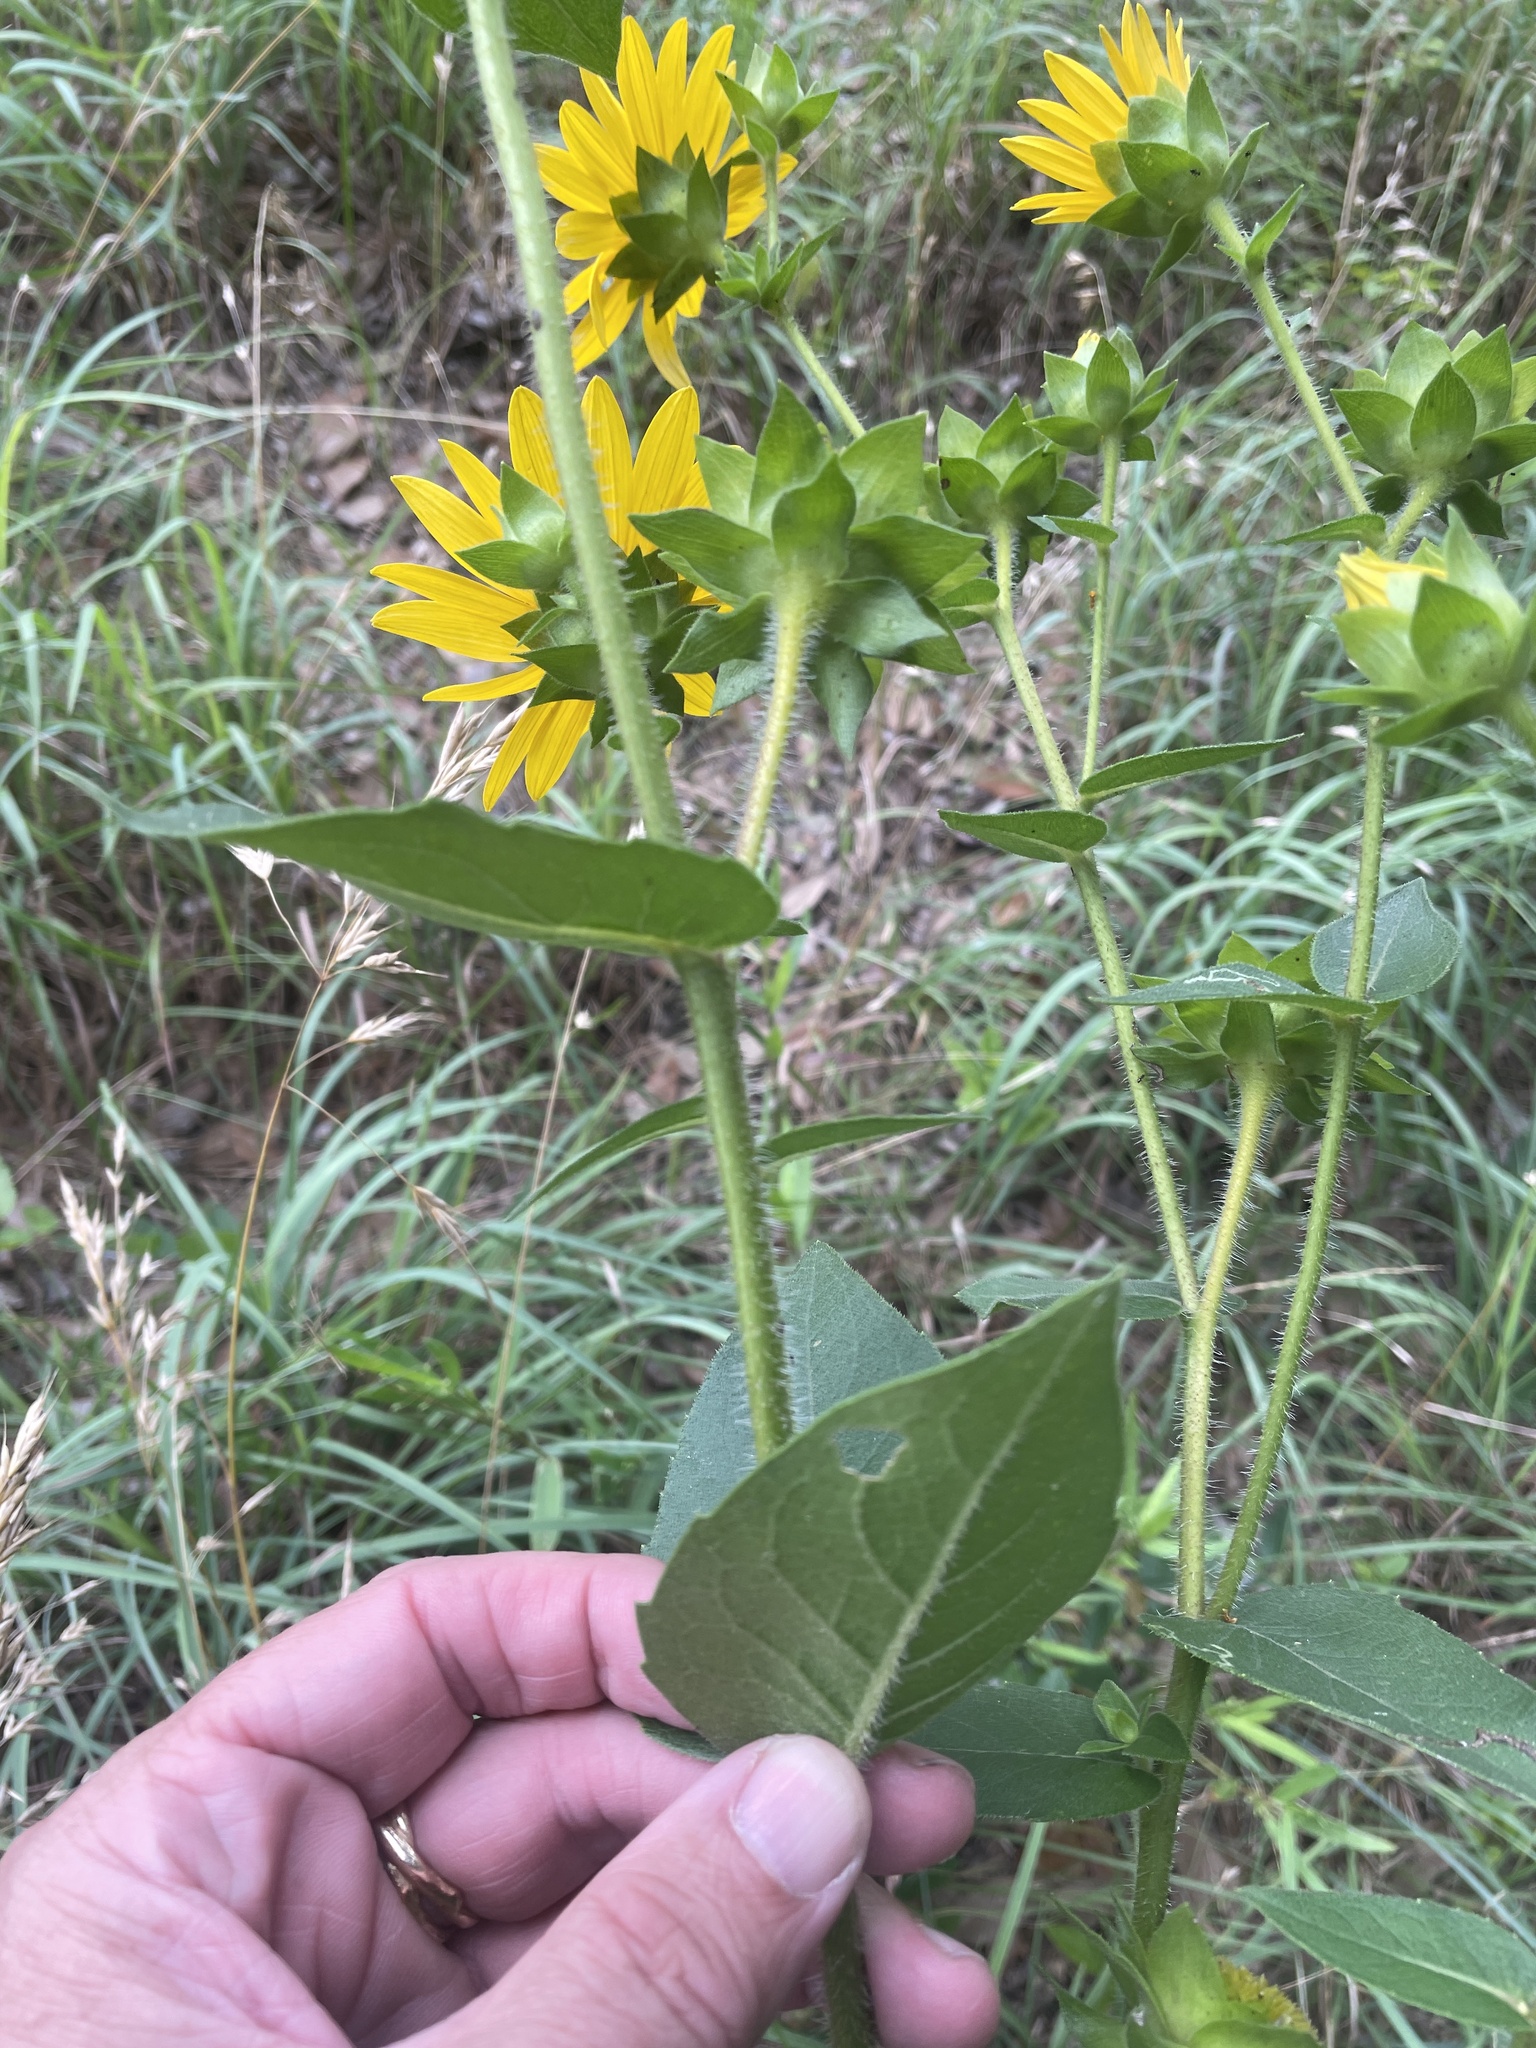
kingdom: Plantae
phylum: Tracheophyta
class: Magnoliopsida
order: Asterales
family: Asteraceae
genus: Silphium
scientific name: Silphium radula
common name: Roughleaf rosinweed
